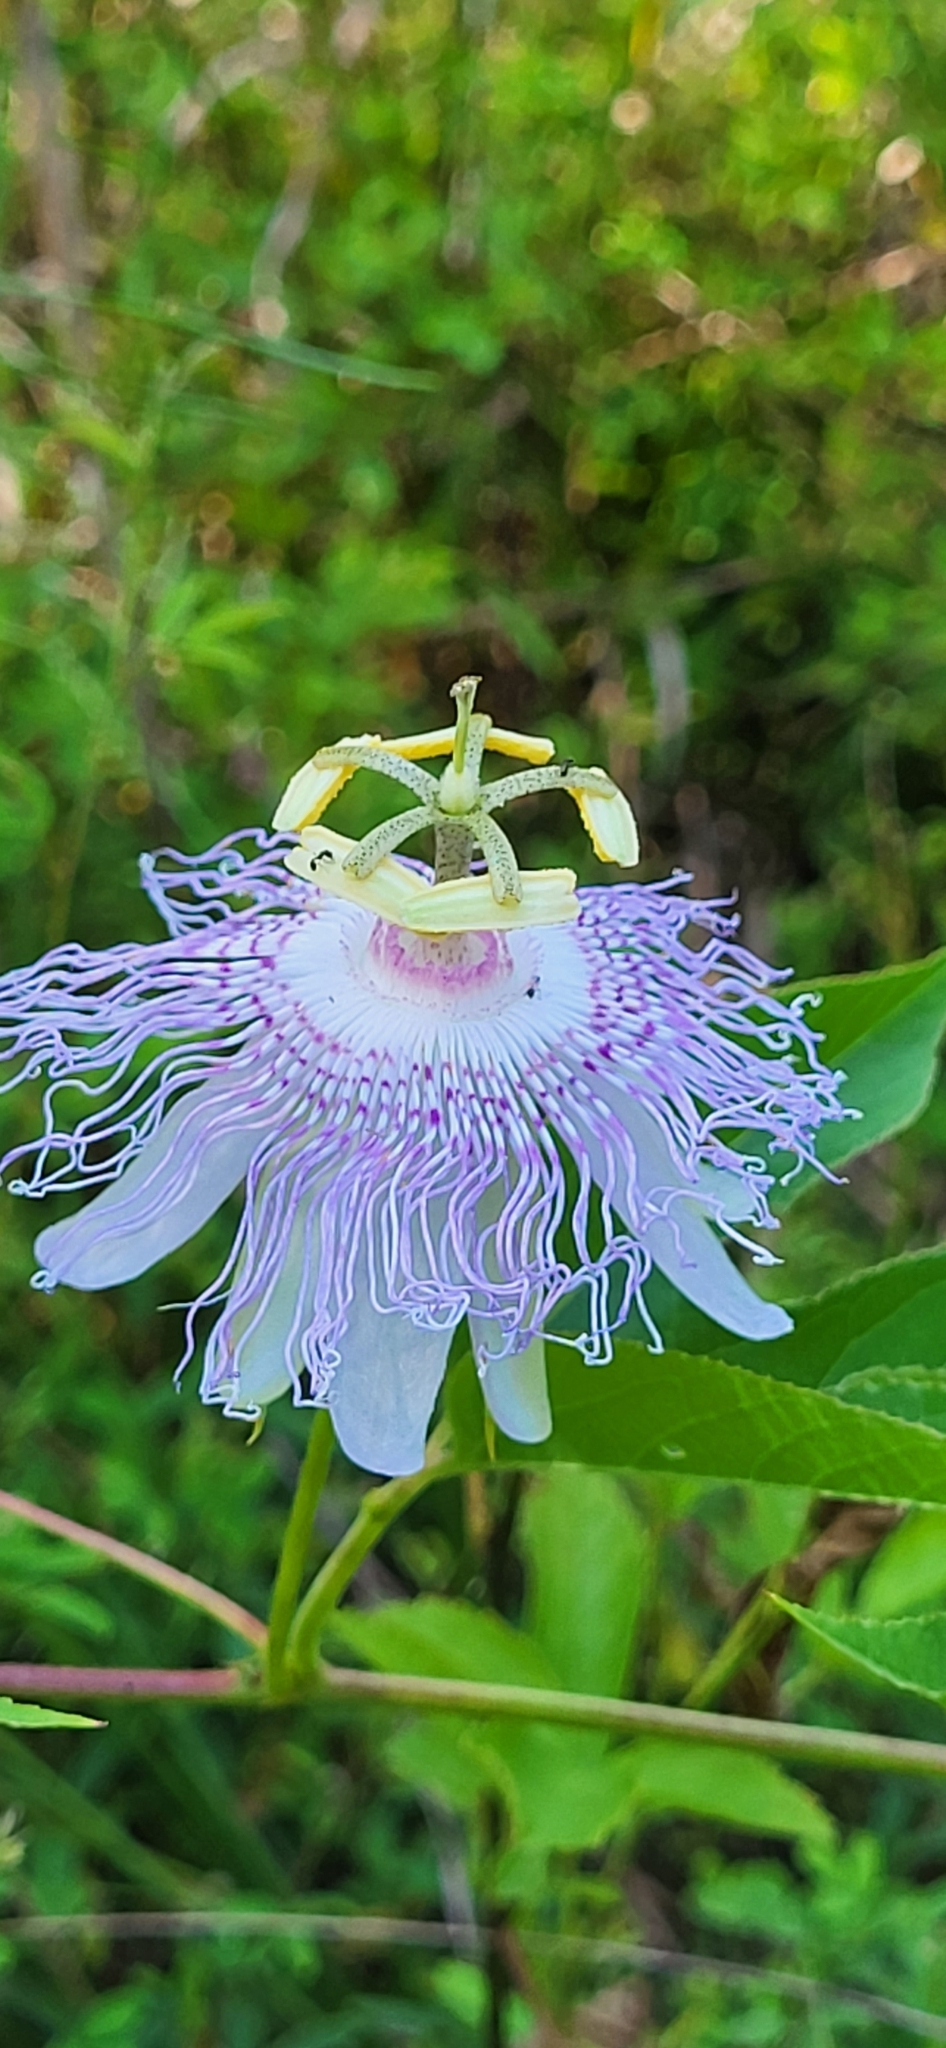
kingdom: Plantae
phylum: Tracheophyta
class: Magnoliopsida
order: Malpighiales
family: Passifloraceae
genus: Passiflora
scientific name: Passiflora incarnata
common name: Apricot-vine
